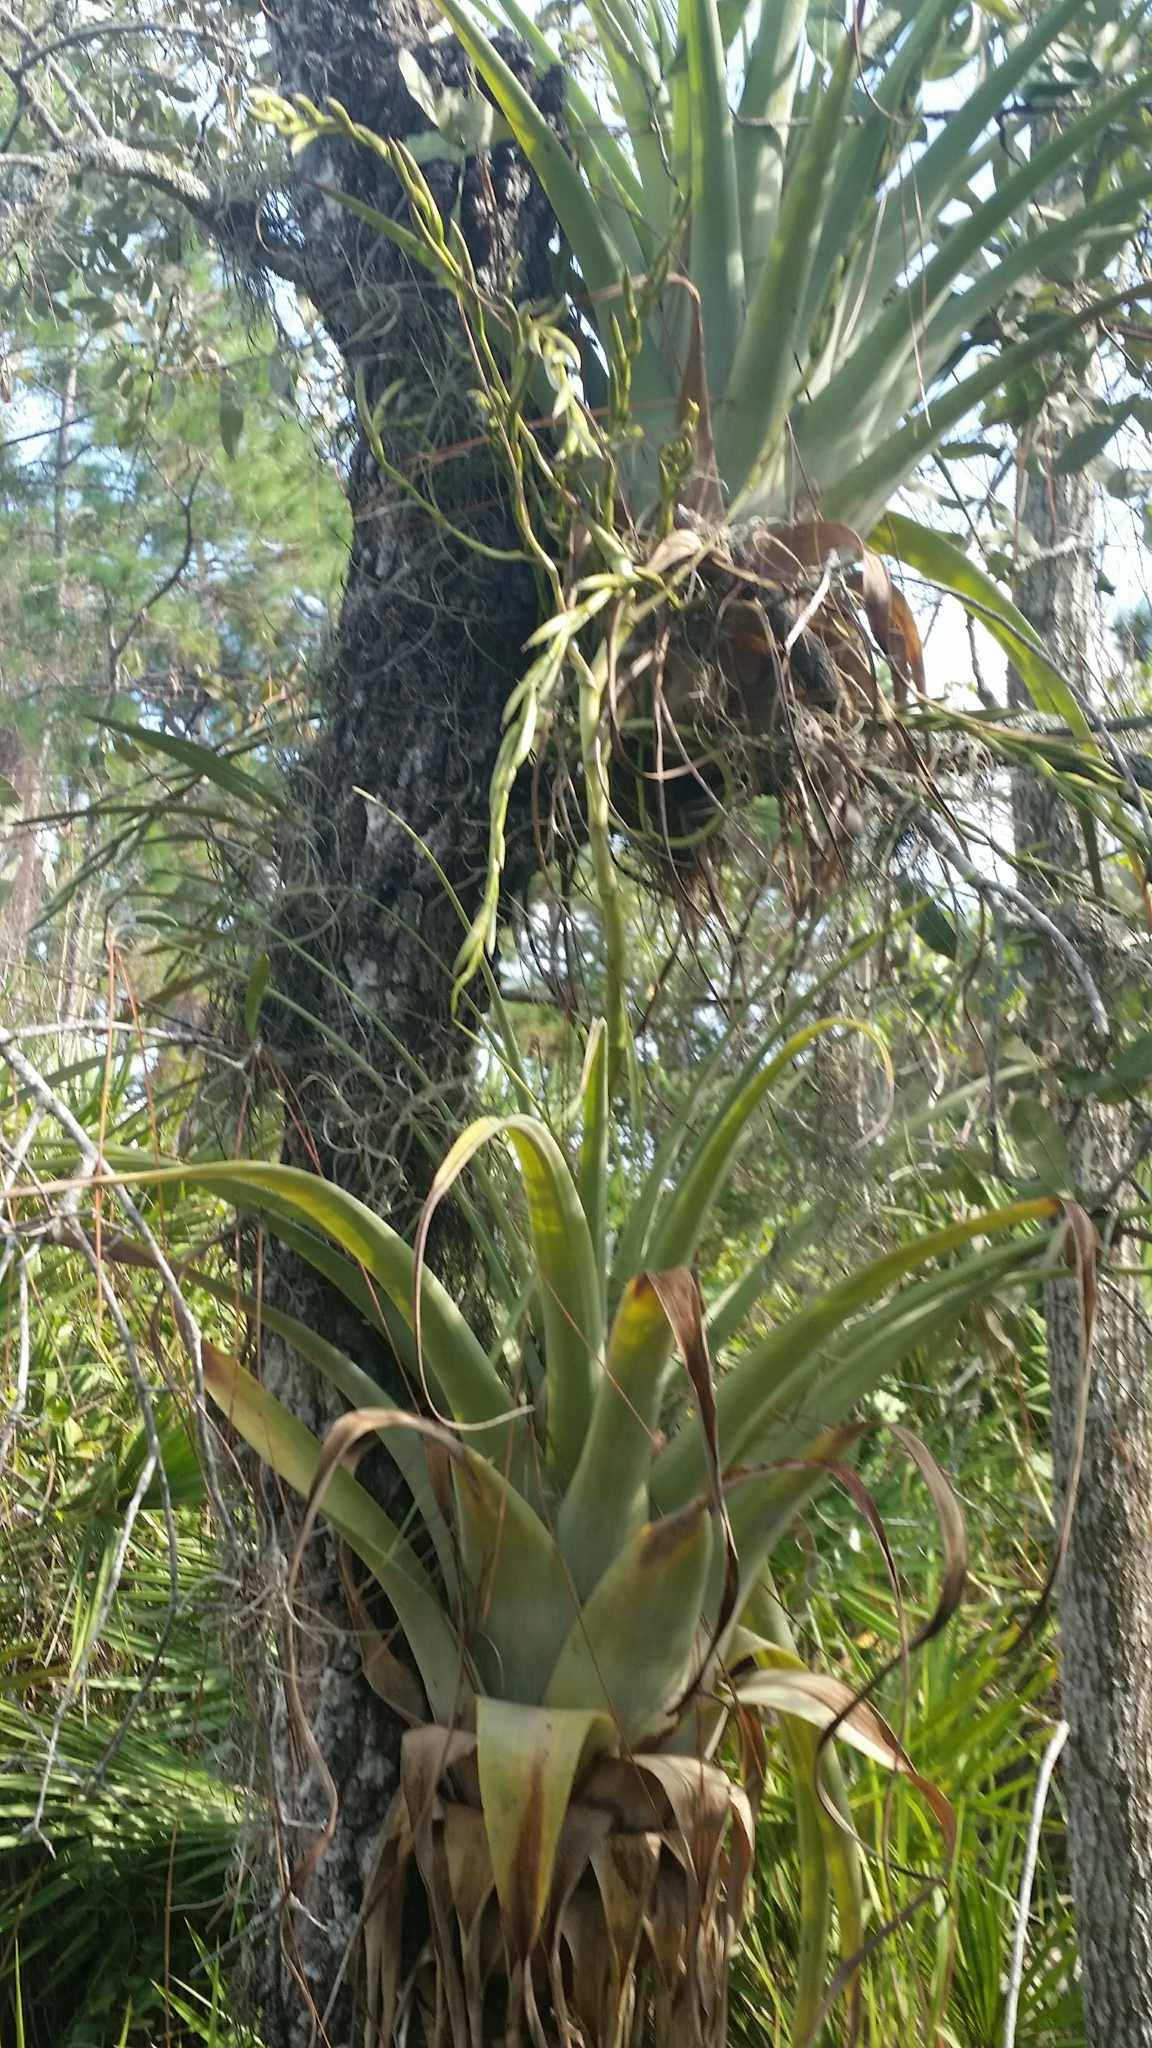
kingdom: Plantae
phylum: Tracheophyta
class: Liliopsida
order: Poales
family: Bromeliaceae
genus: Tillandsia
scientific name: Tillandsia utriculata
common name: Wild pine
